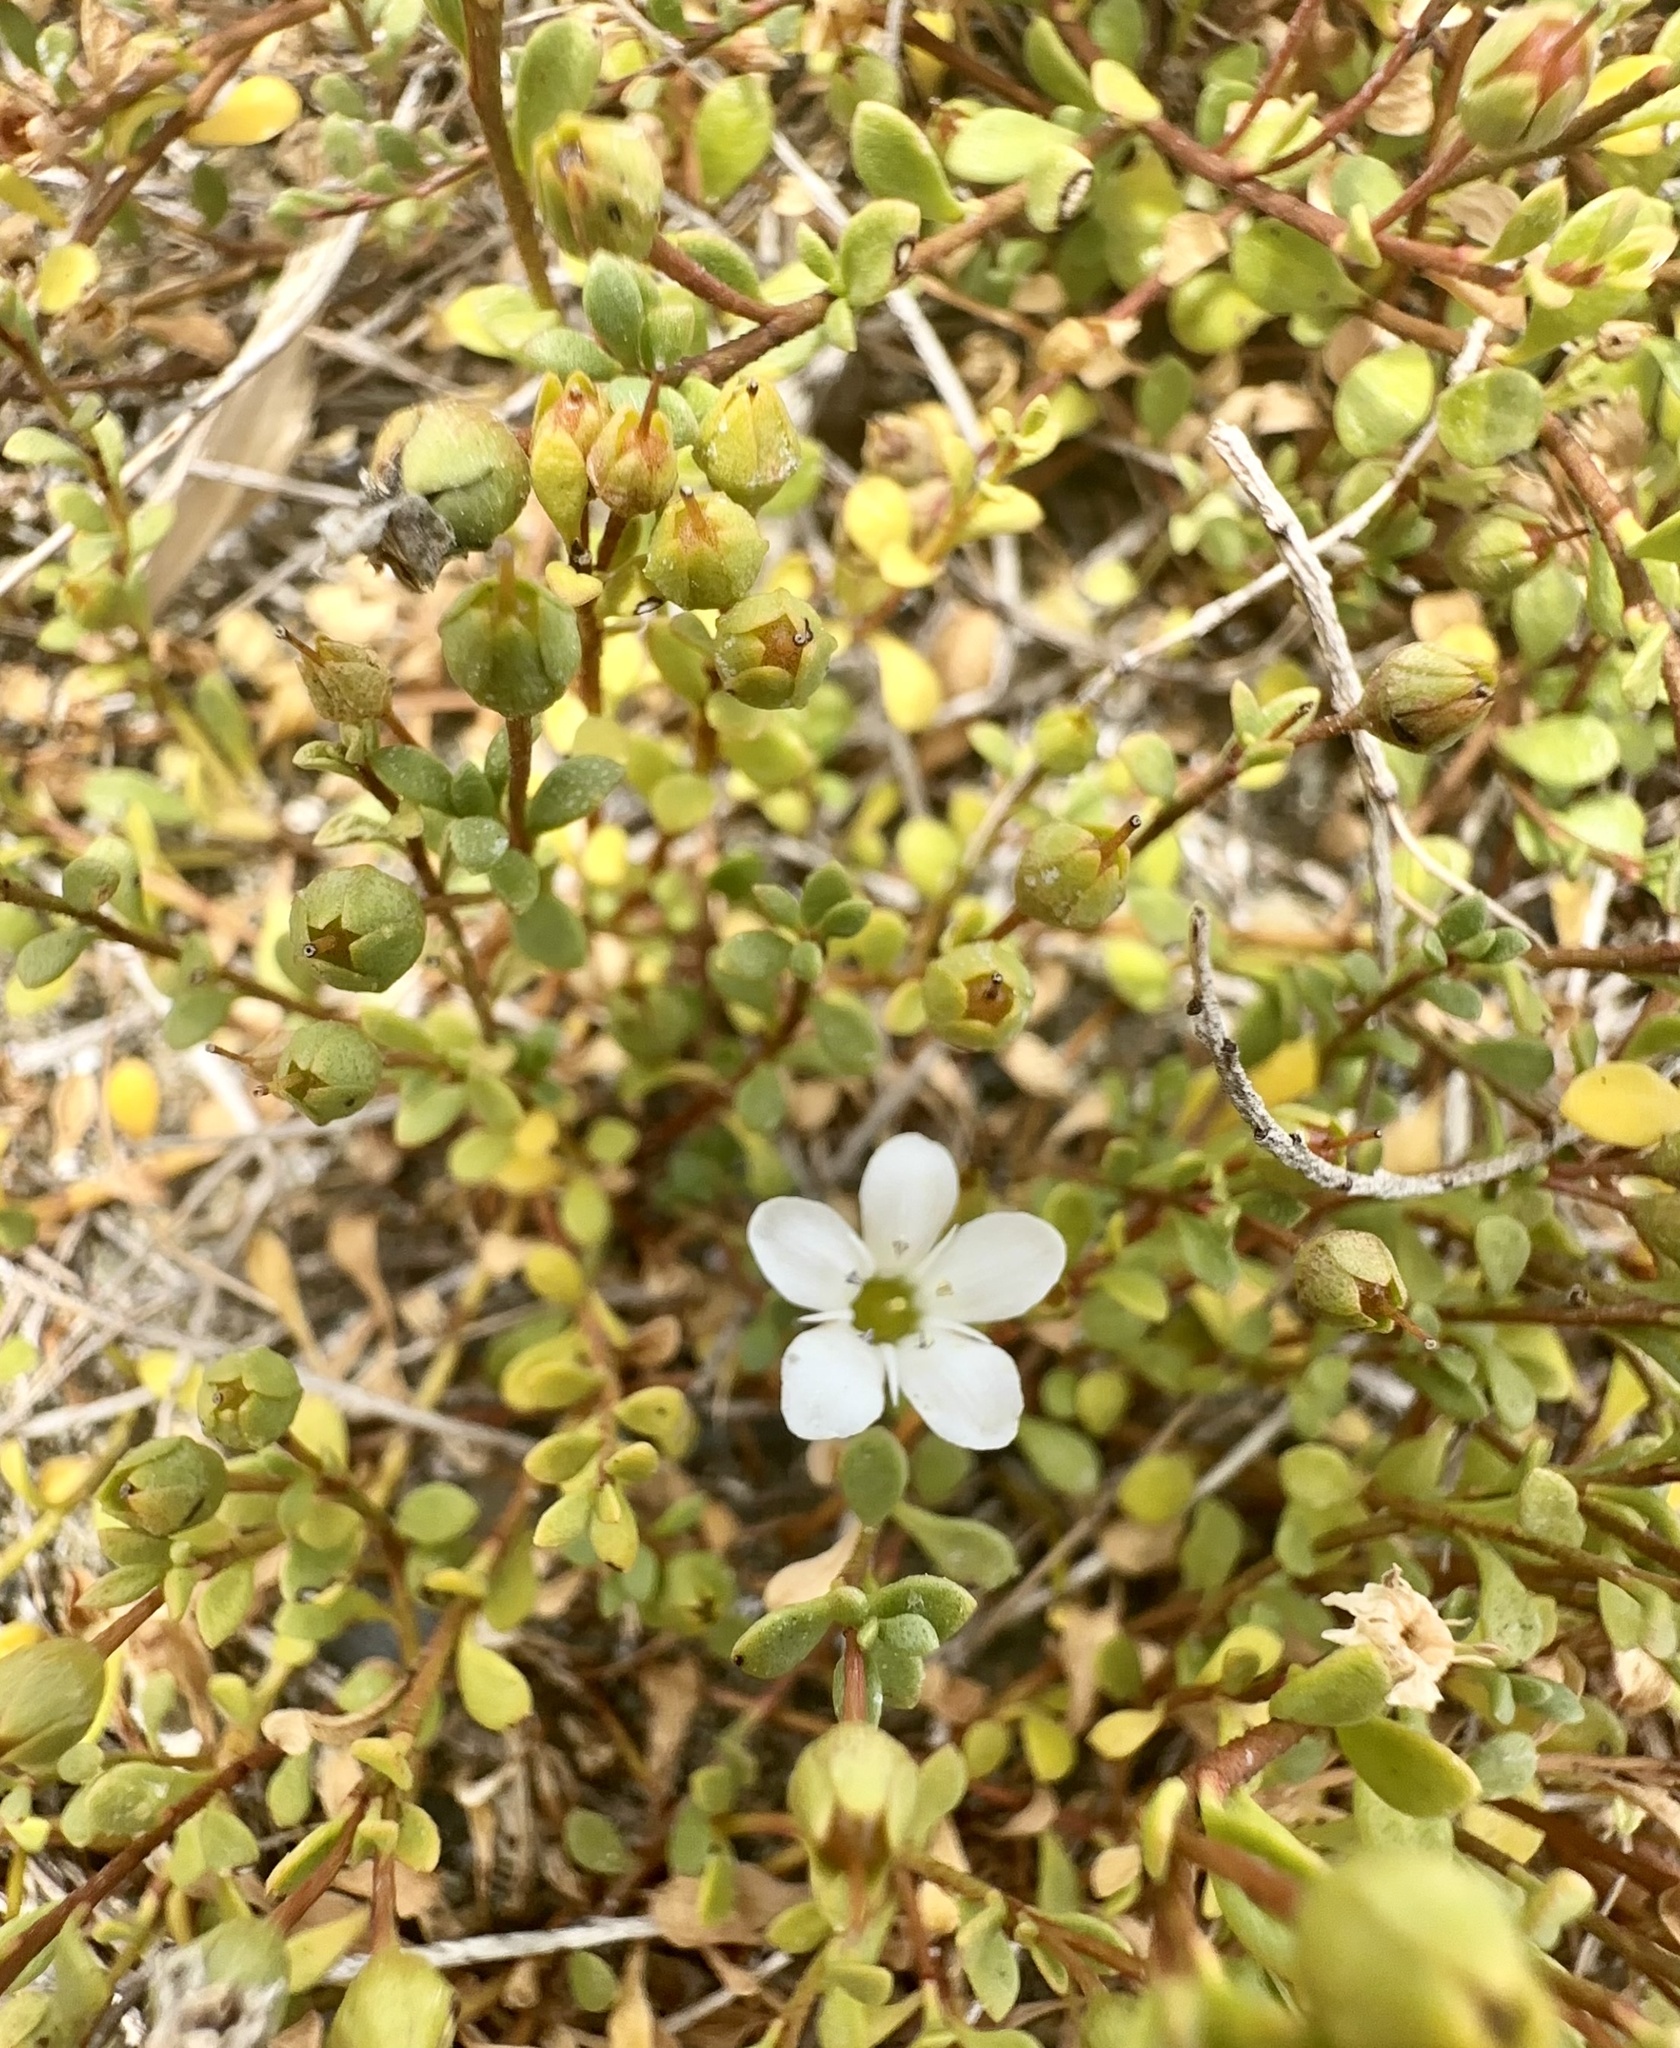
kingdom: Plantae
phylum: Tracheophyta
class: Magnoliopsida
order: Ericales
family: Primulaceae
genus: Samolus
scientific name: Samolus repens
